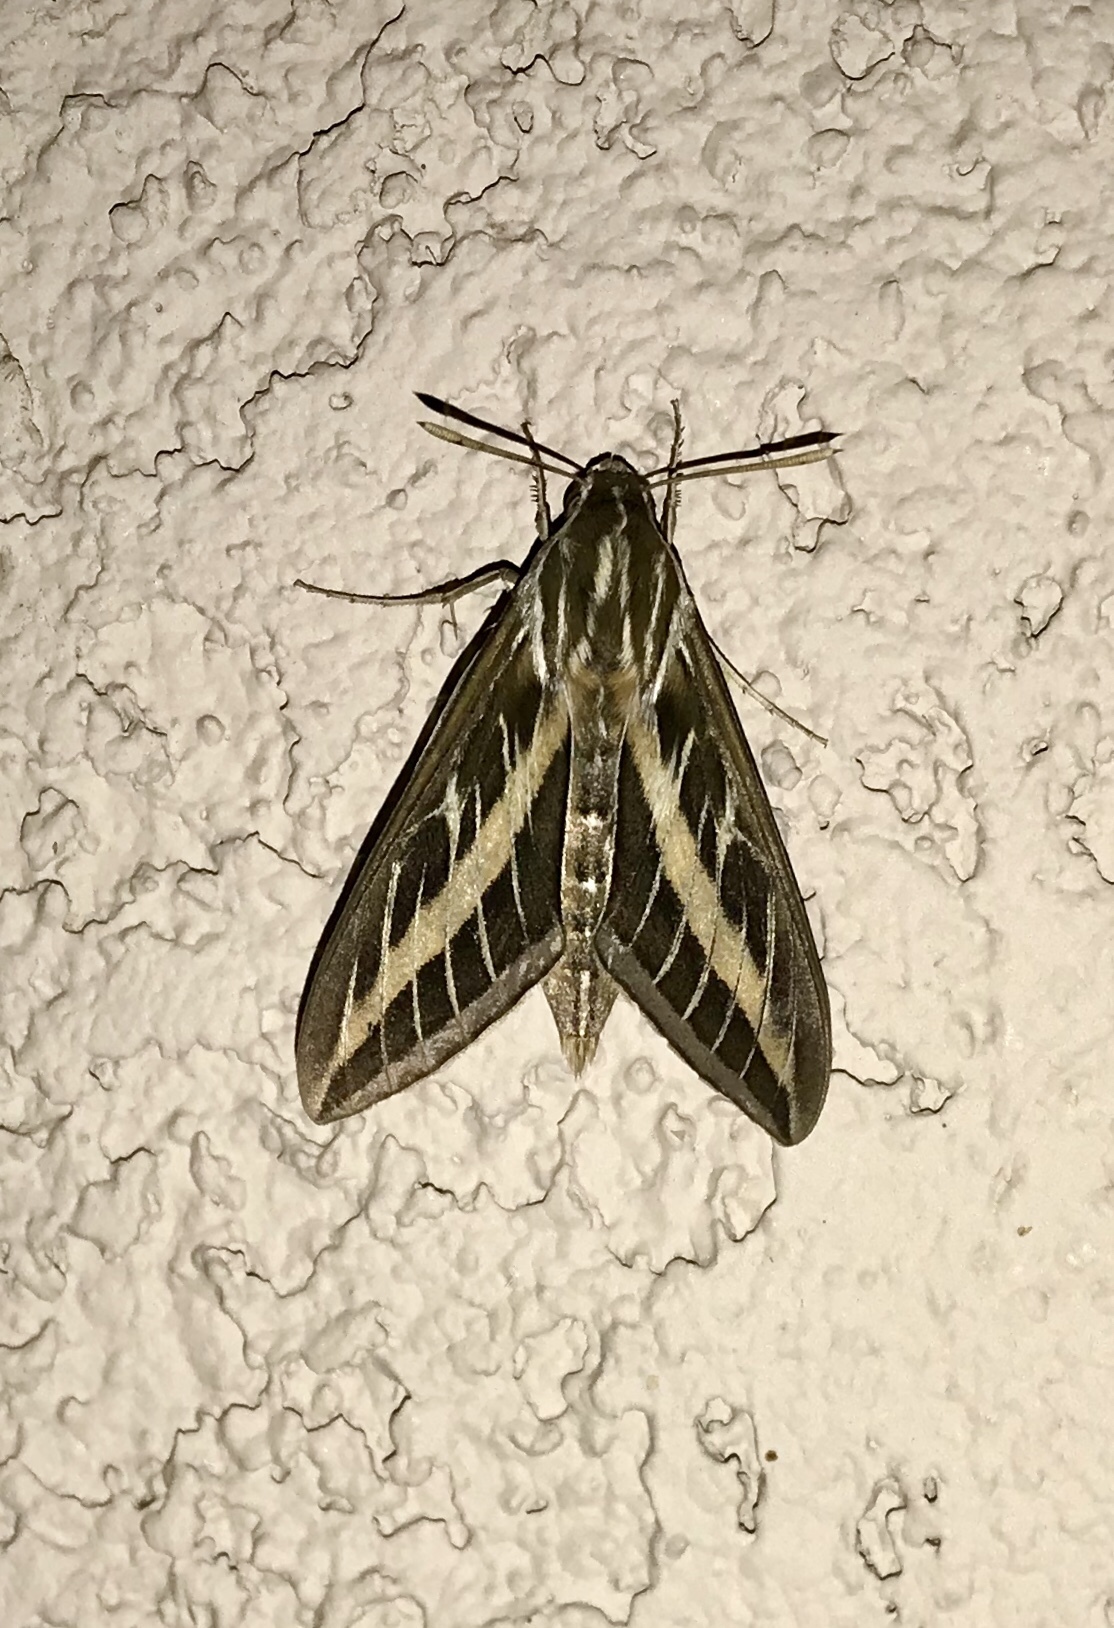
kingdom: Animalia
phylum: Arthropoda
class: Insecta
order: Lepidoptera
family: Sphingidae
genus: Hyles
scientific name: Hyles lineata
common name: White-lined sphinx
